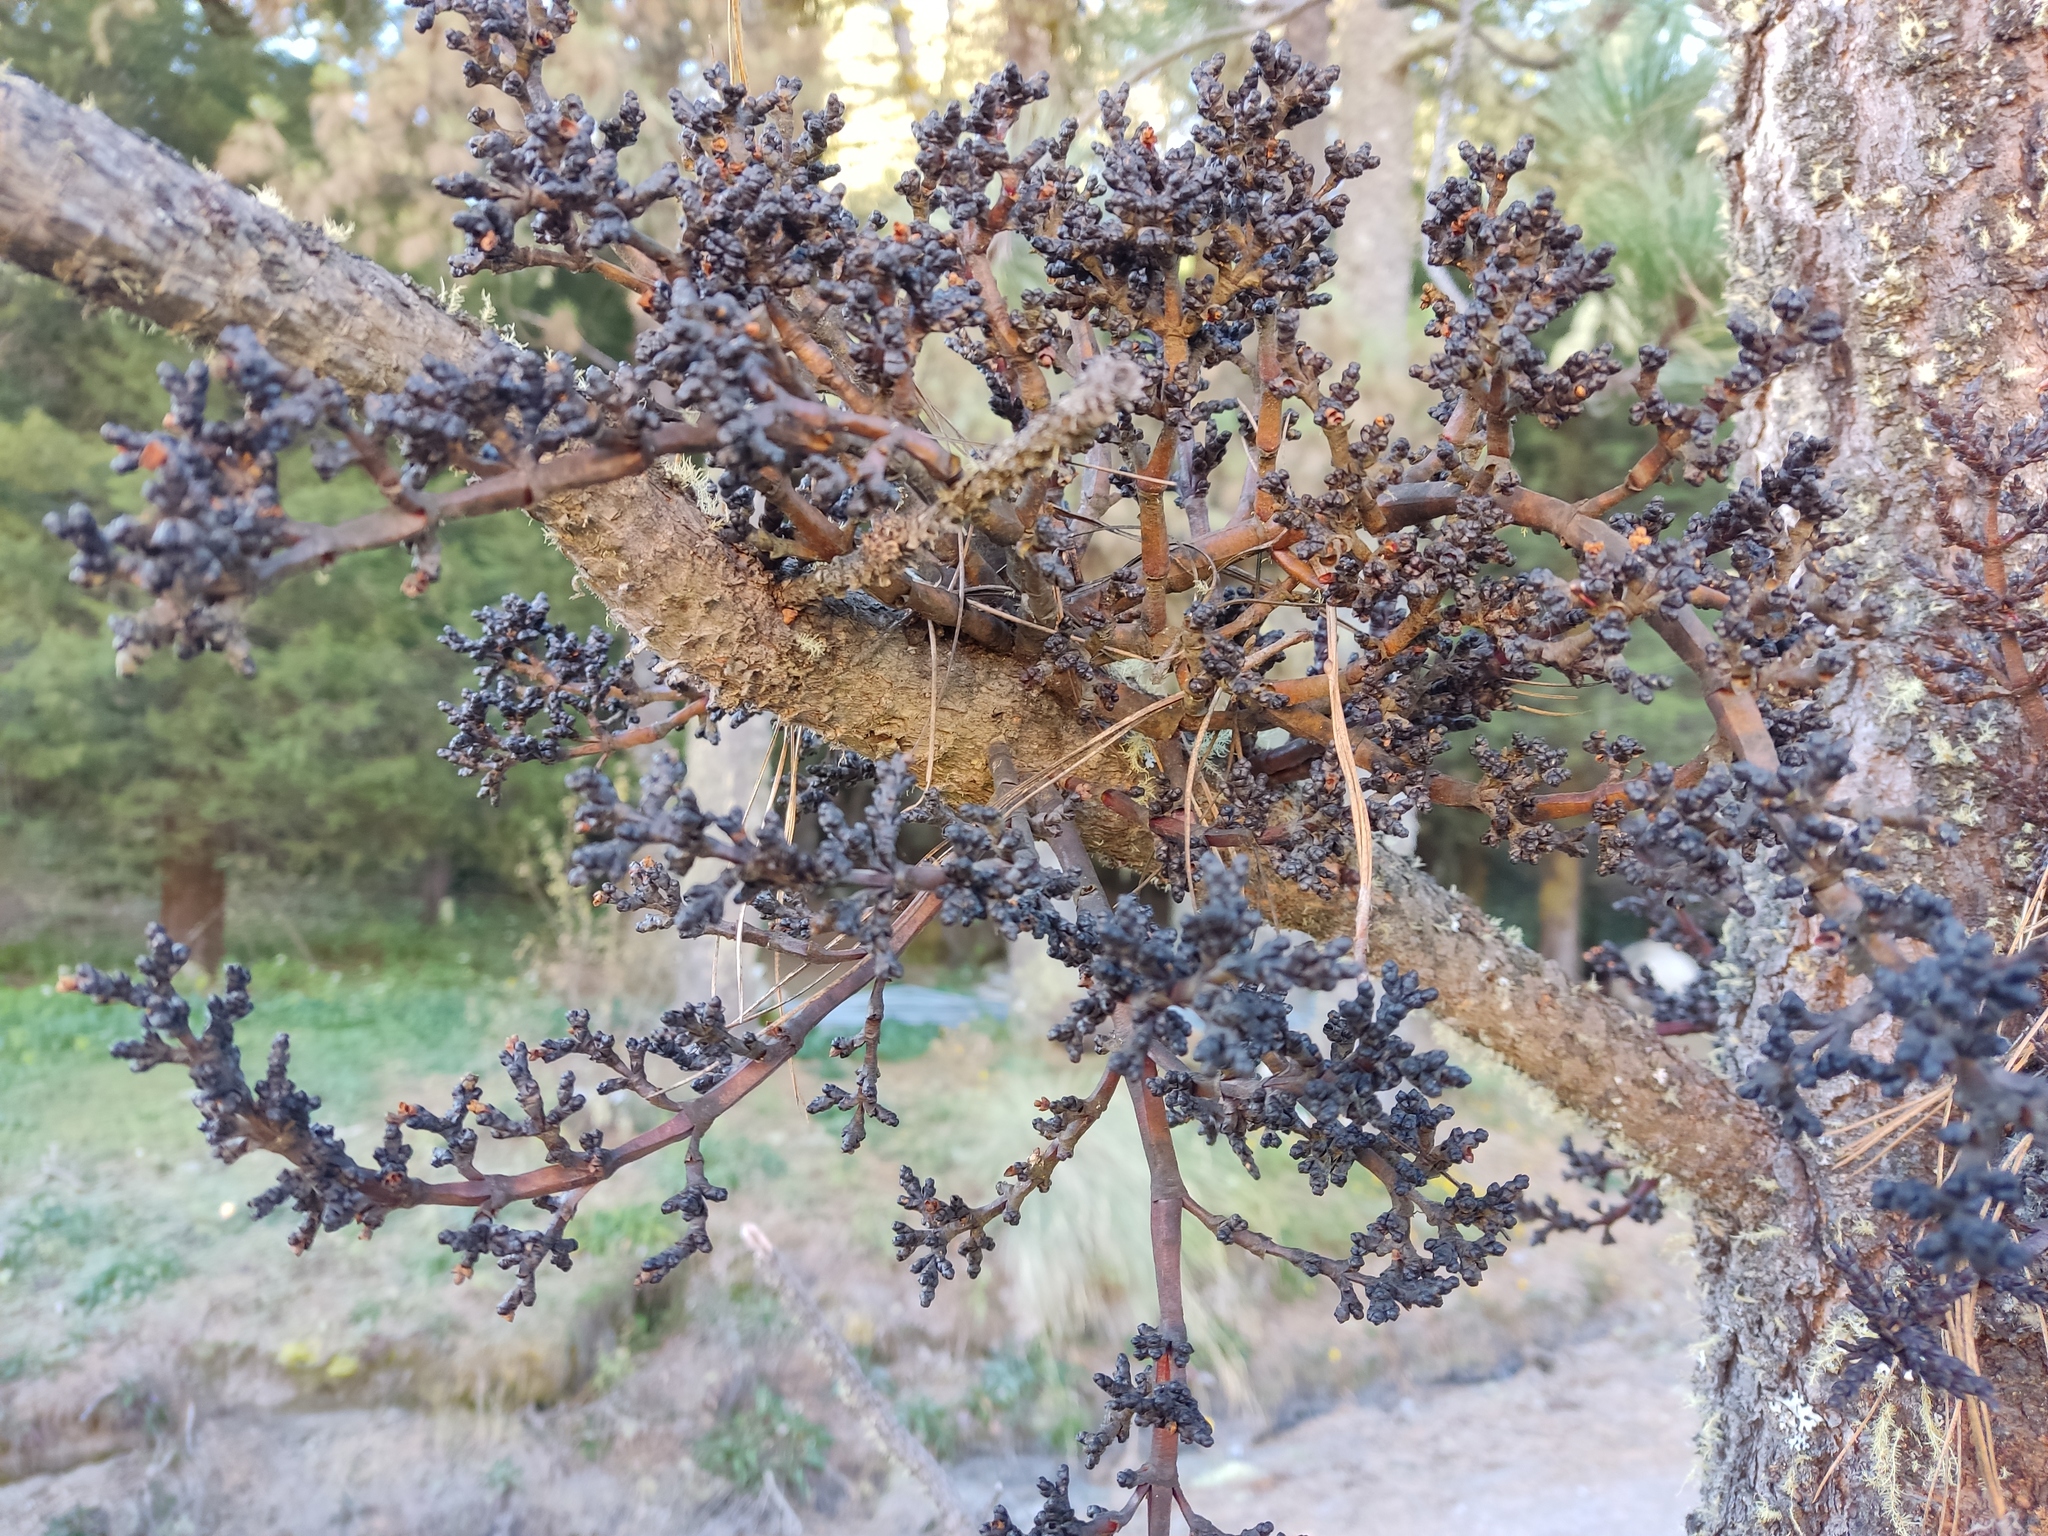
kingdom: Plantae
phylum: Tracheophyta
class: Magnoliopsida
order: Santalales
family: Viscaceae
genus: Arceuthobium
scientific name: Arceuthobium vaginatum
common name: Southwestern dwarf-mistletoe
